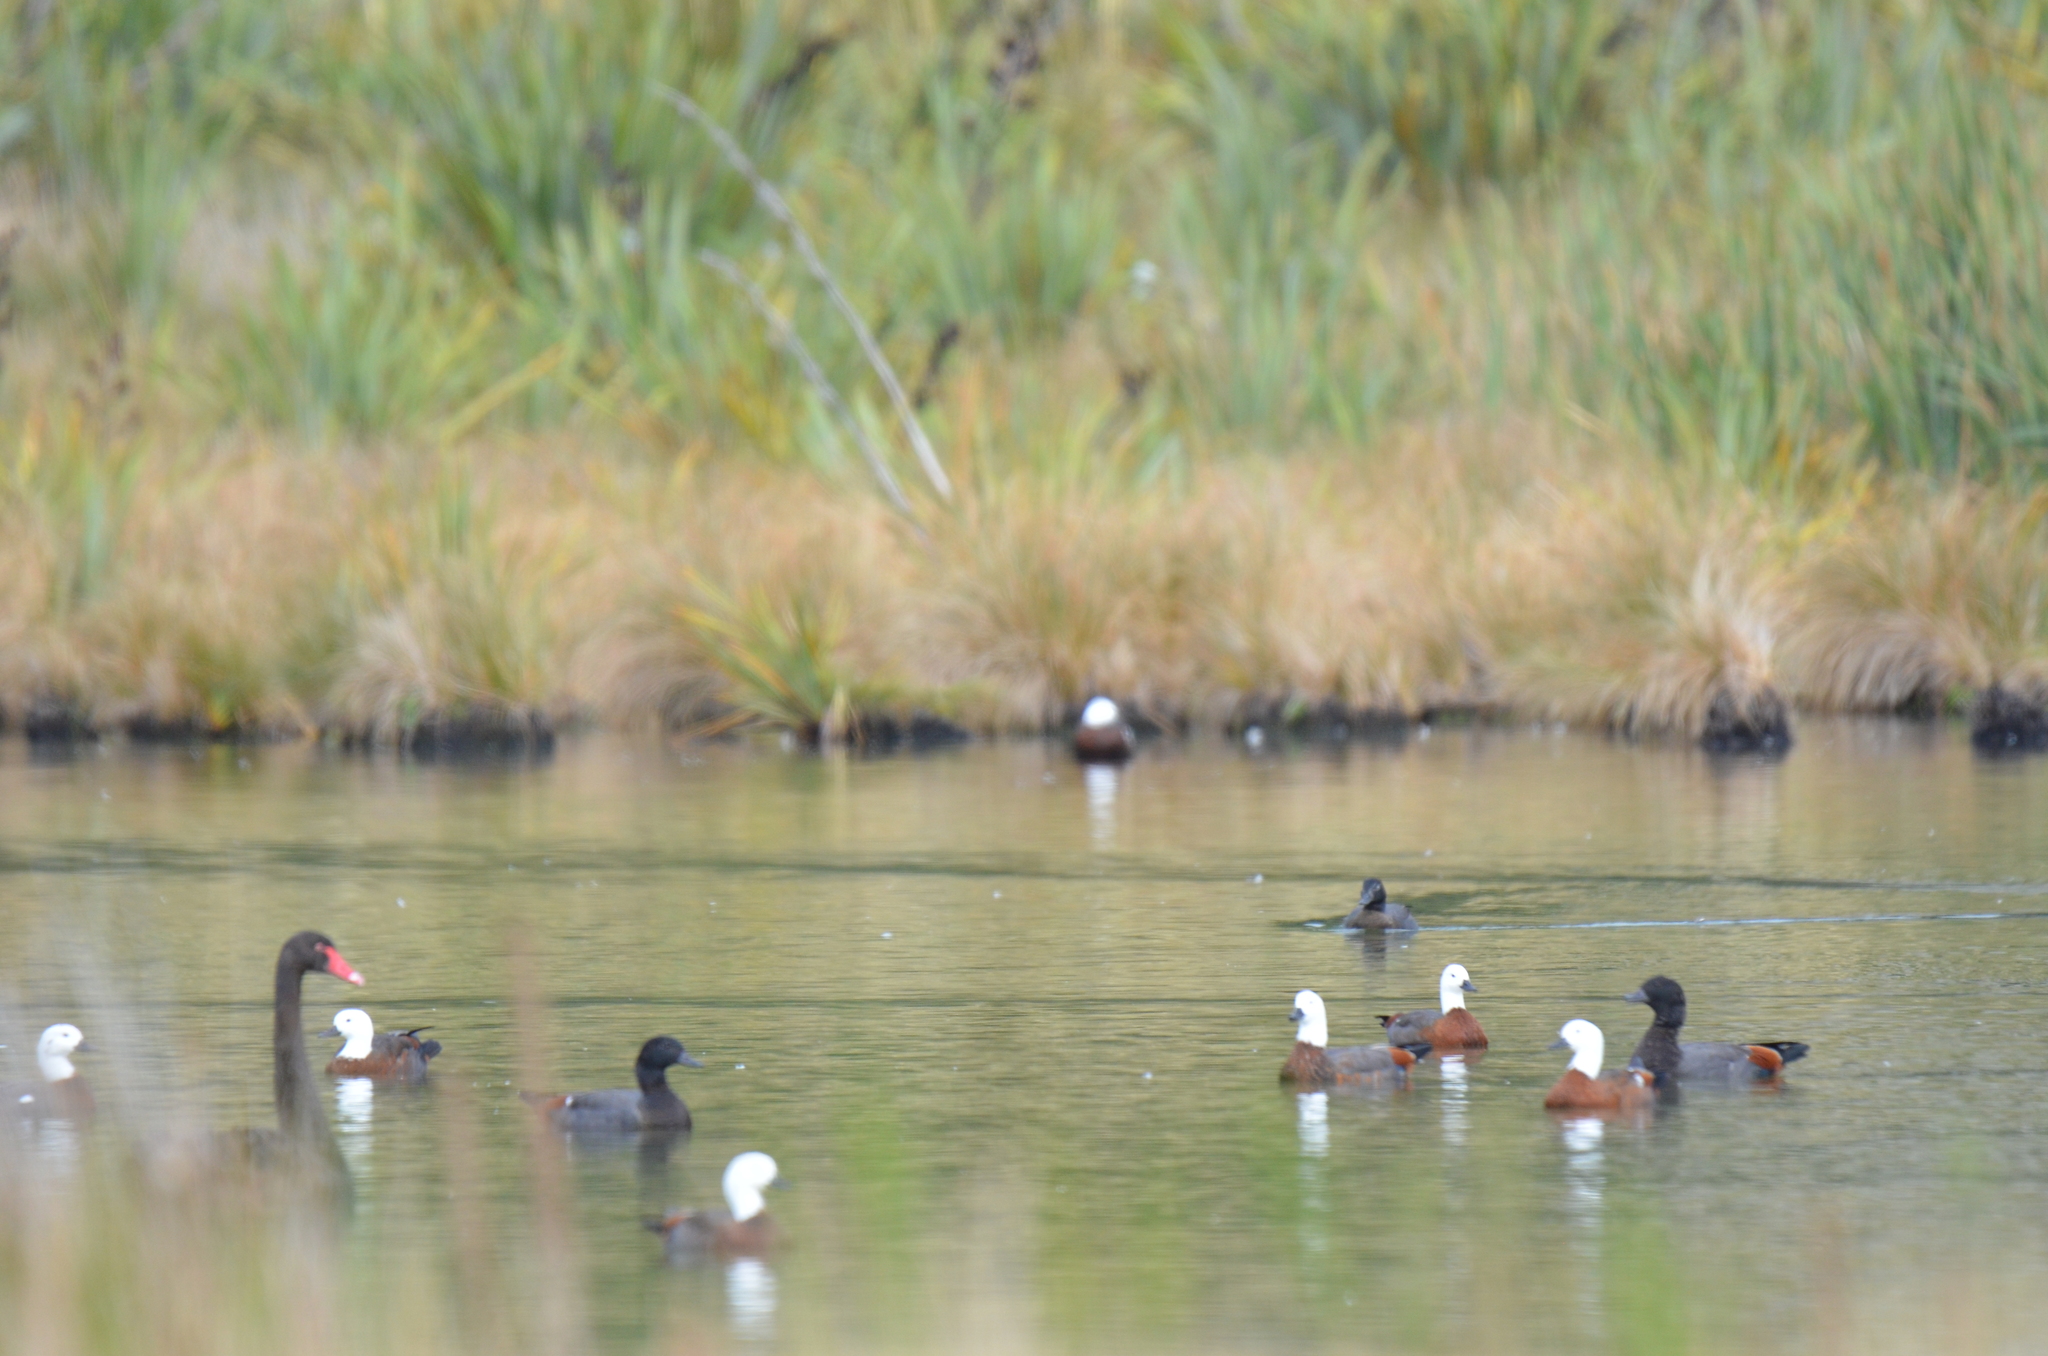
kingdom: Animalia
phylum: Chordata
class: Aves
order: Anseriformes
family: Anatidae
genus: Tadorna
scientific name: Tadorna variegata
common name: Paradise shelduck
